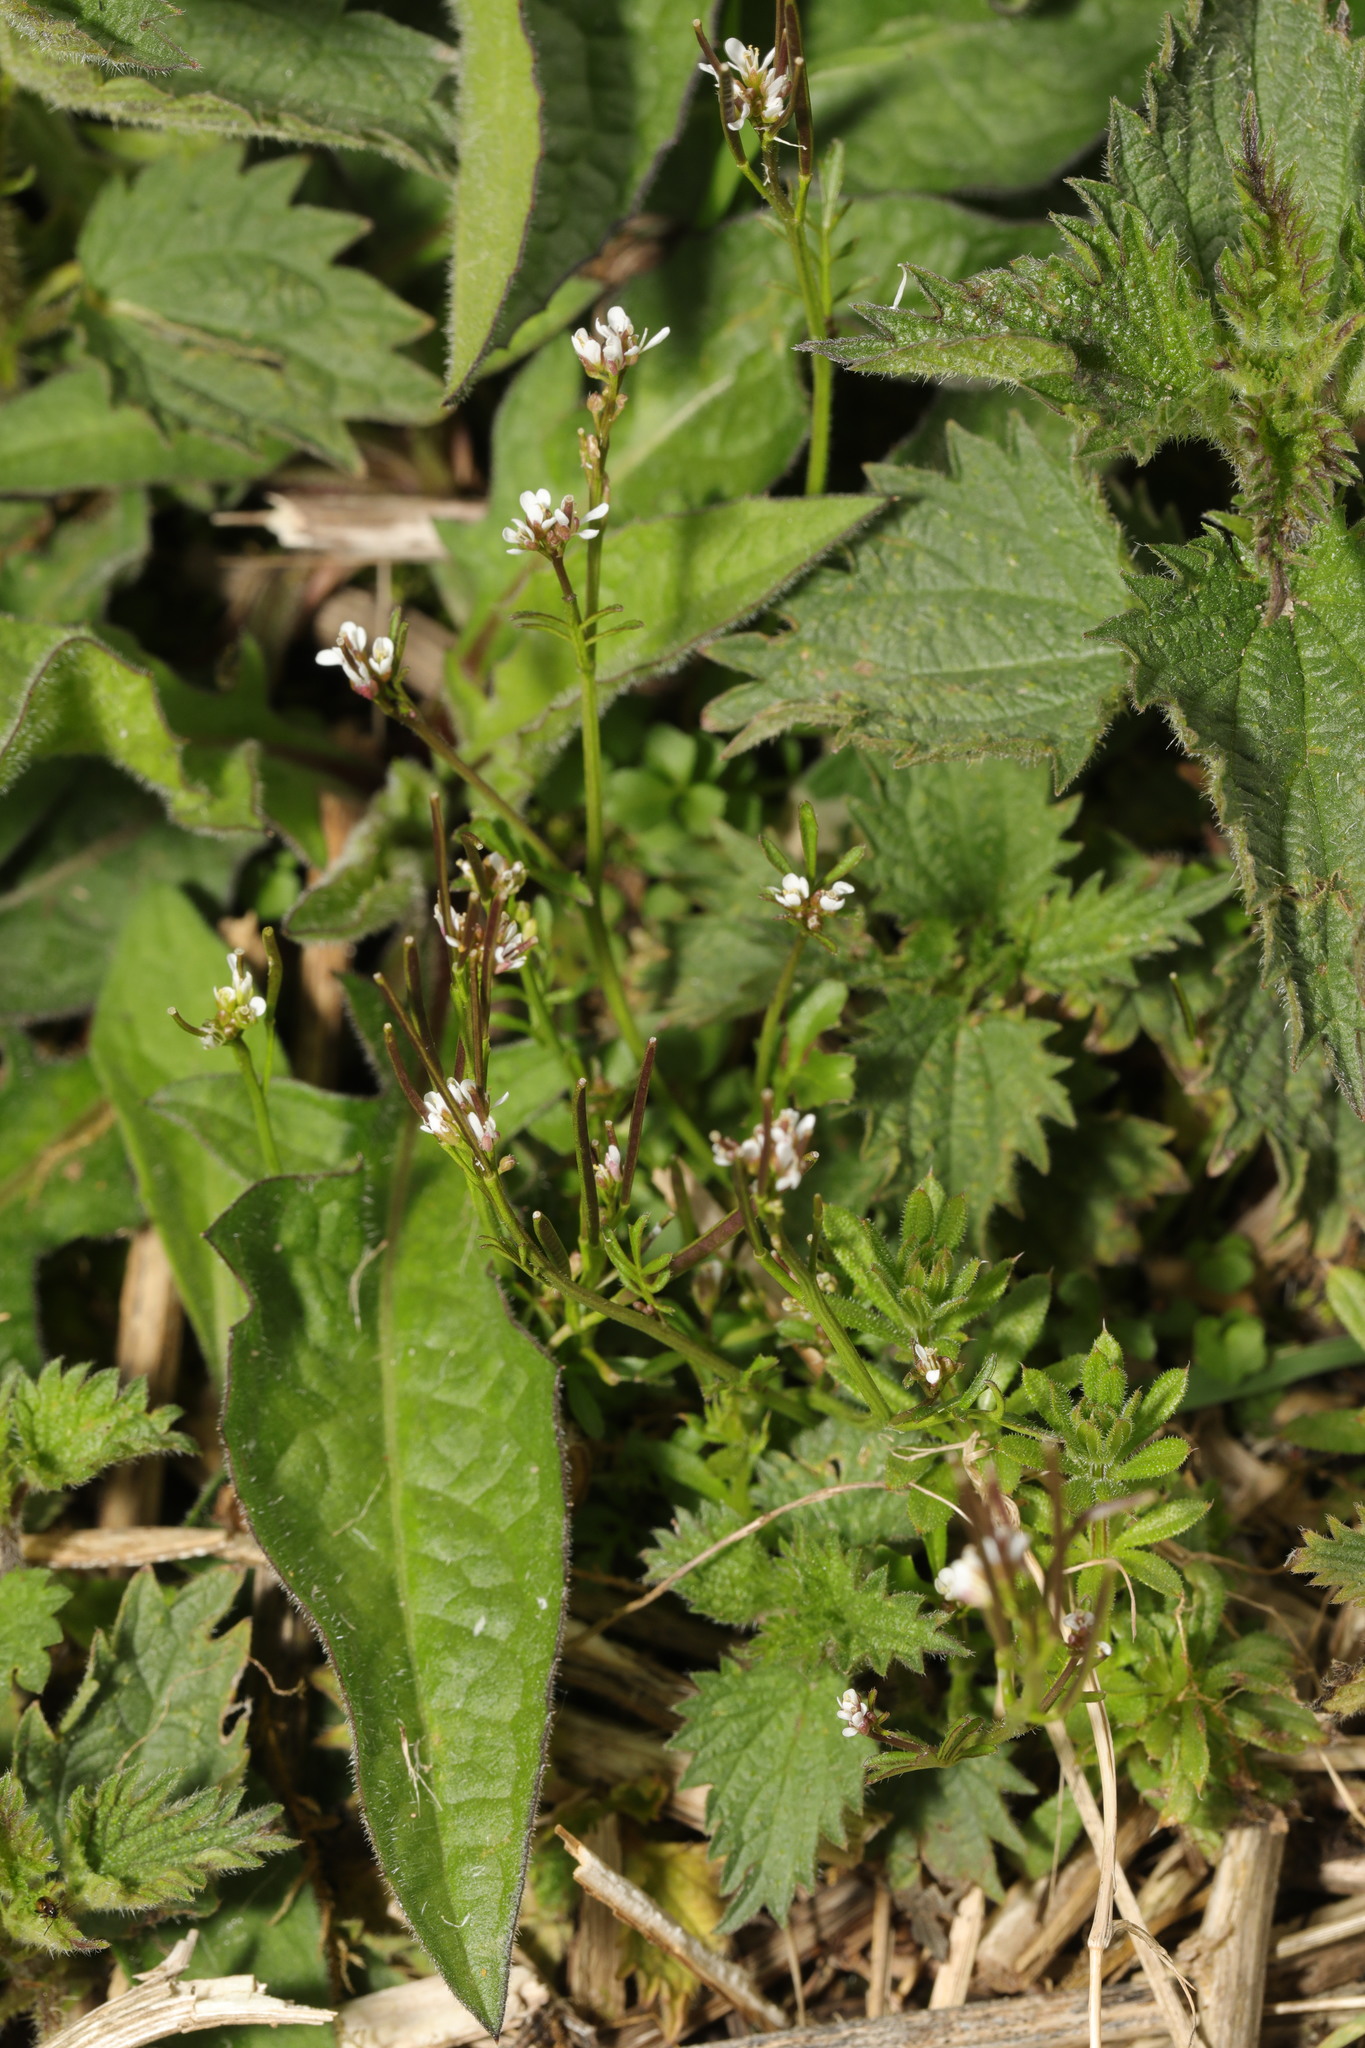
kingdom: Plantae
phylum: Tracheophyta
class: Magnoliopsida
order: Brassicales
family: Brassicaceae
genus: Cardamine
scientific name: Cardamine hirsuta
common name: Hairy bittercress
